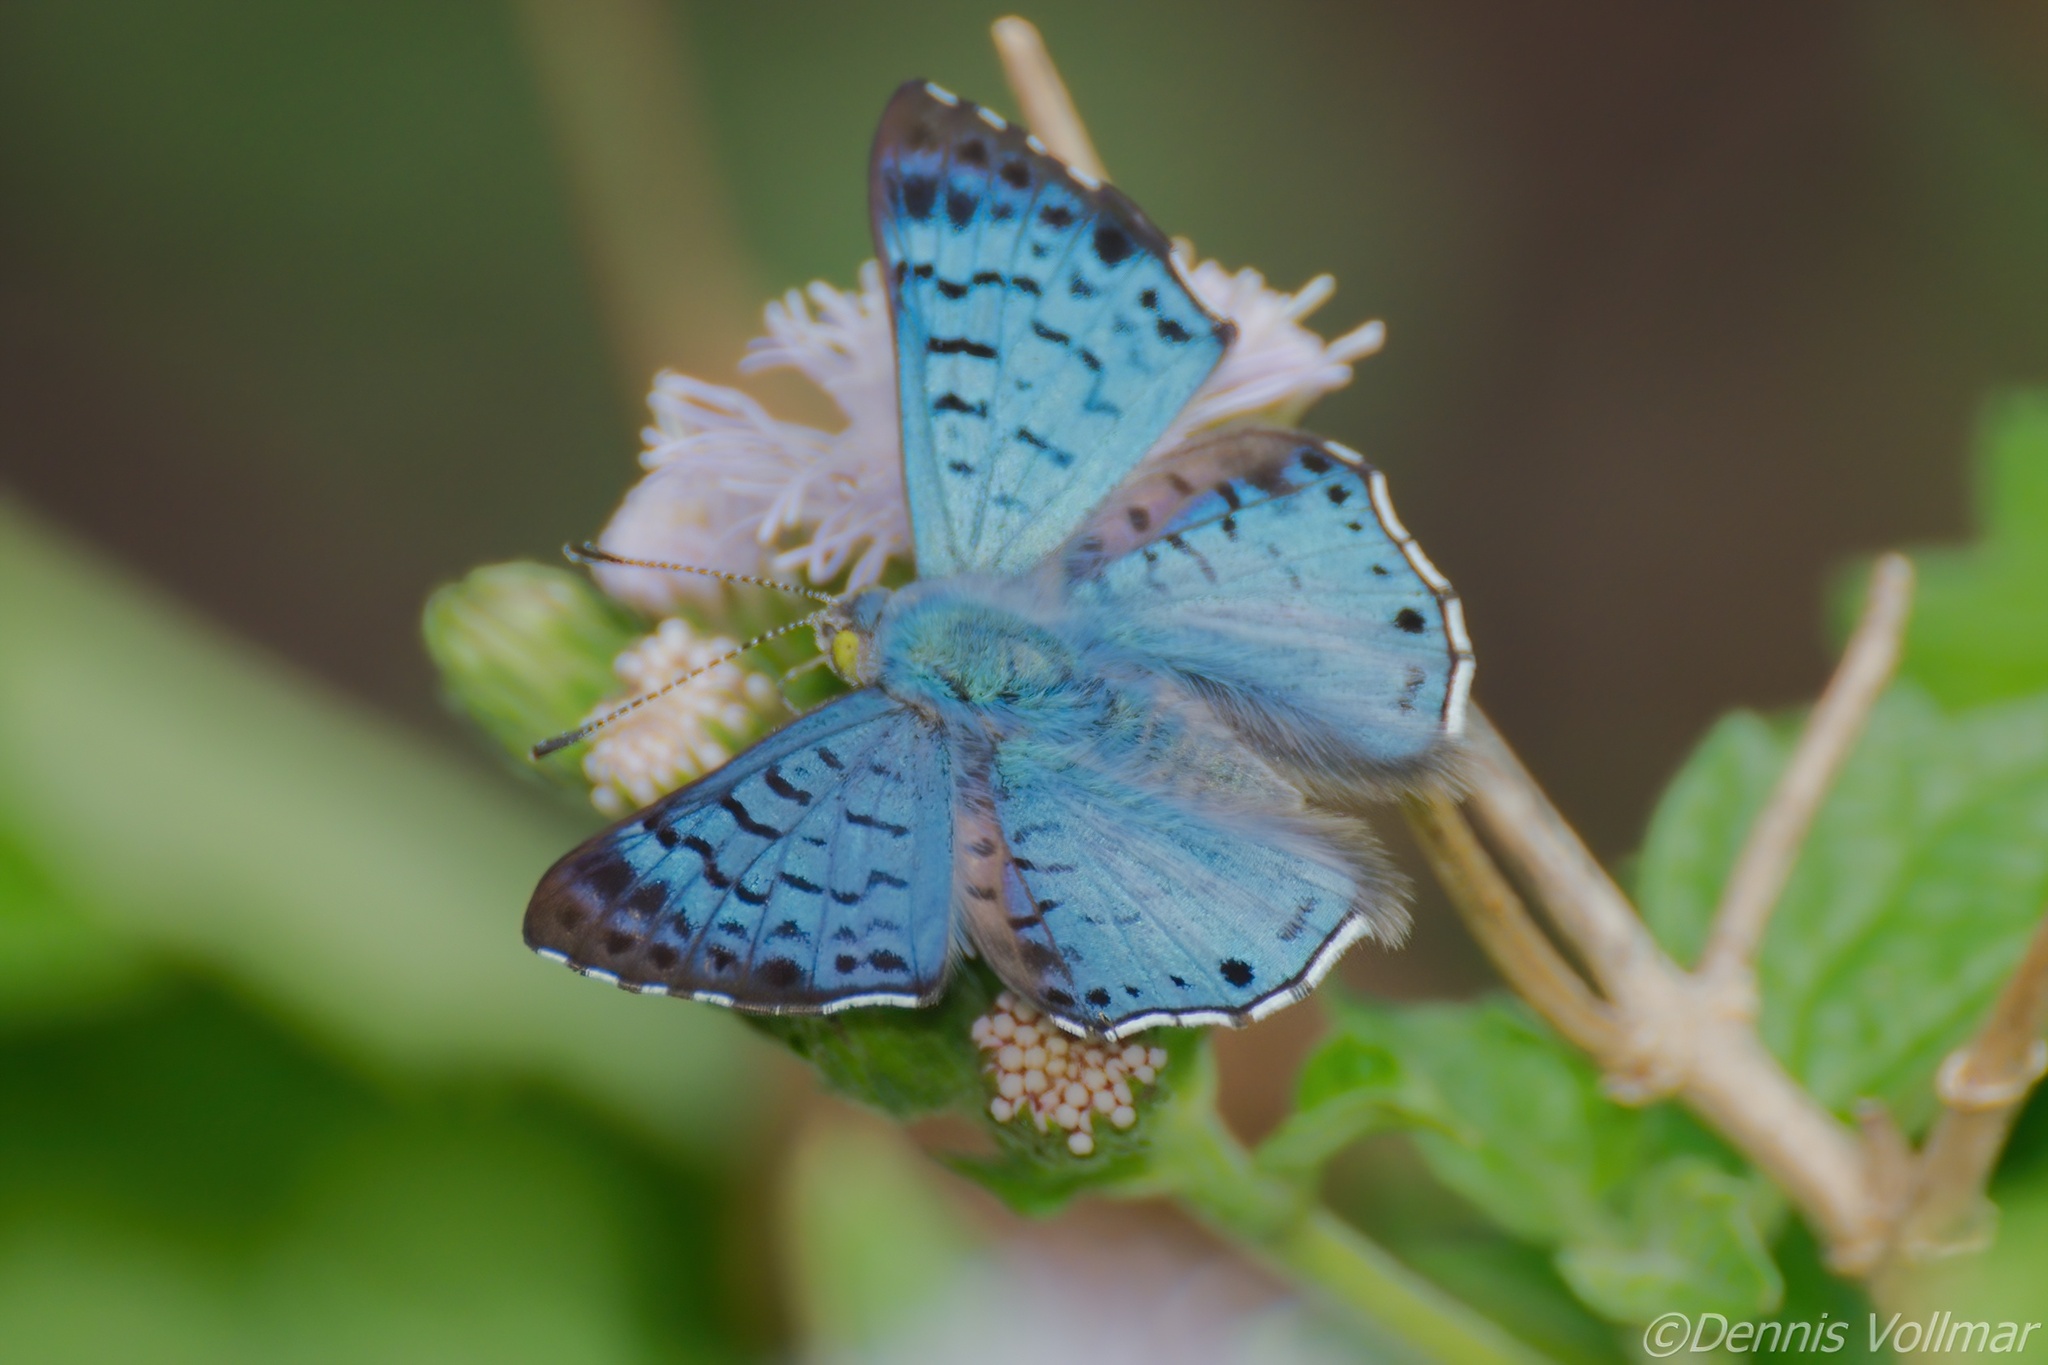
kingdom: Animalia
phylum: Arthropoda
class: Insecta
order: Lepidoptera
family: Riodinidae
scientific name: Riodinidae
